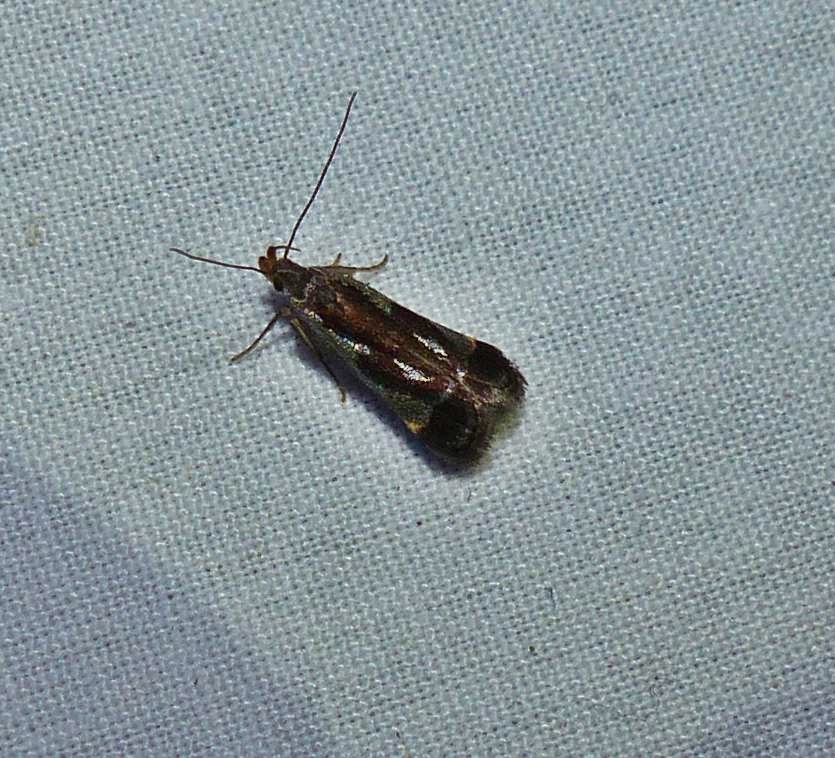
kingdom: Animalia
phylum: Arthropoda
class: Insecta
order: Lepidoptera
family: Gelechiidae
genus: Dichomeris
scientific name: Dichomeris ochripalpella
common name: Shining dichomeris moth
